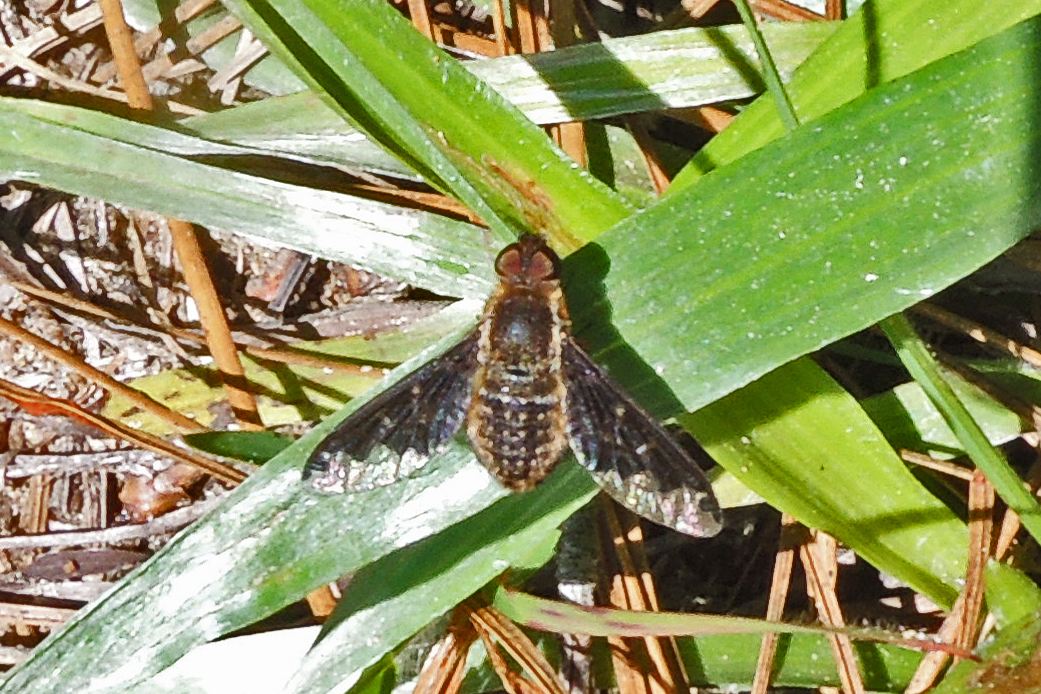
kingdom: Animalia
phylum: Arthropoda
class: Insecta
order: Diptera
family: Bombyliidae
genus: Hemipenthes
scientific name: Hemipenthes sinuosus
